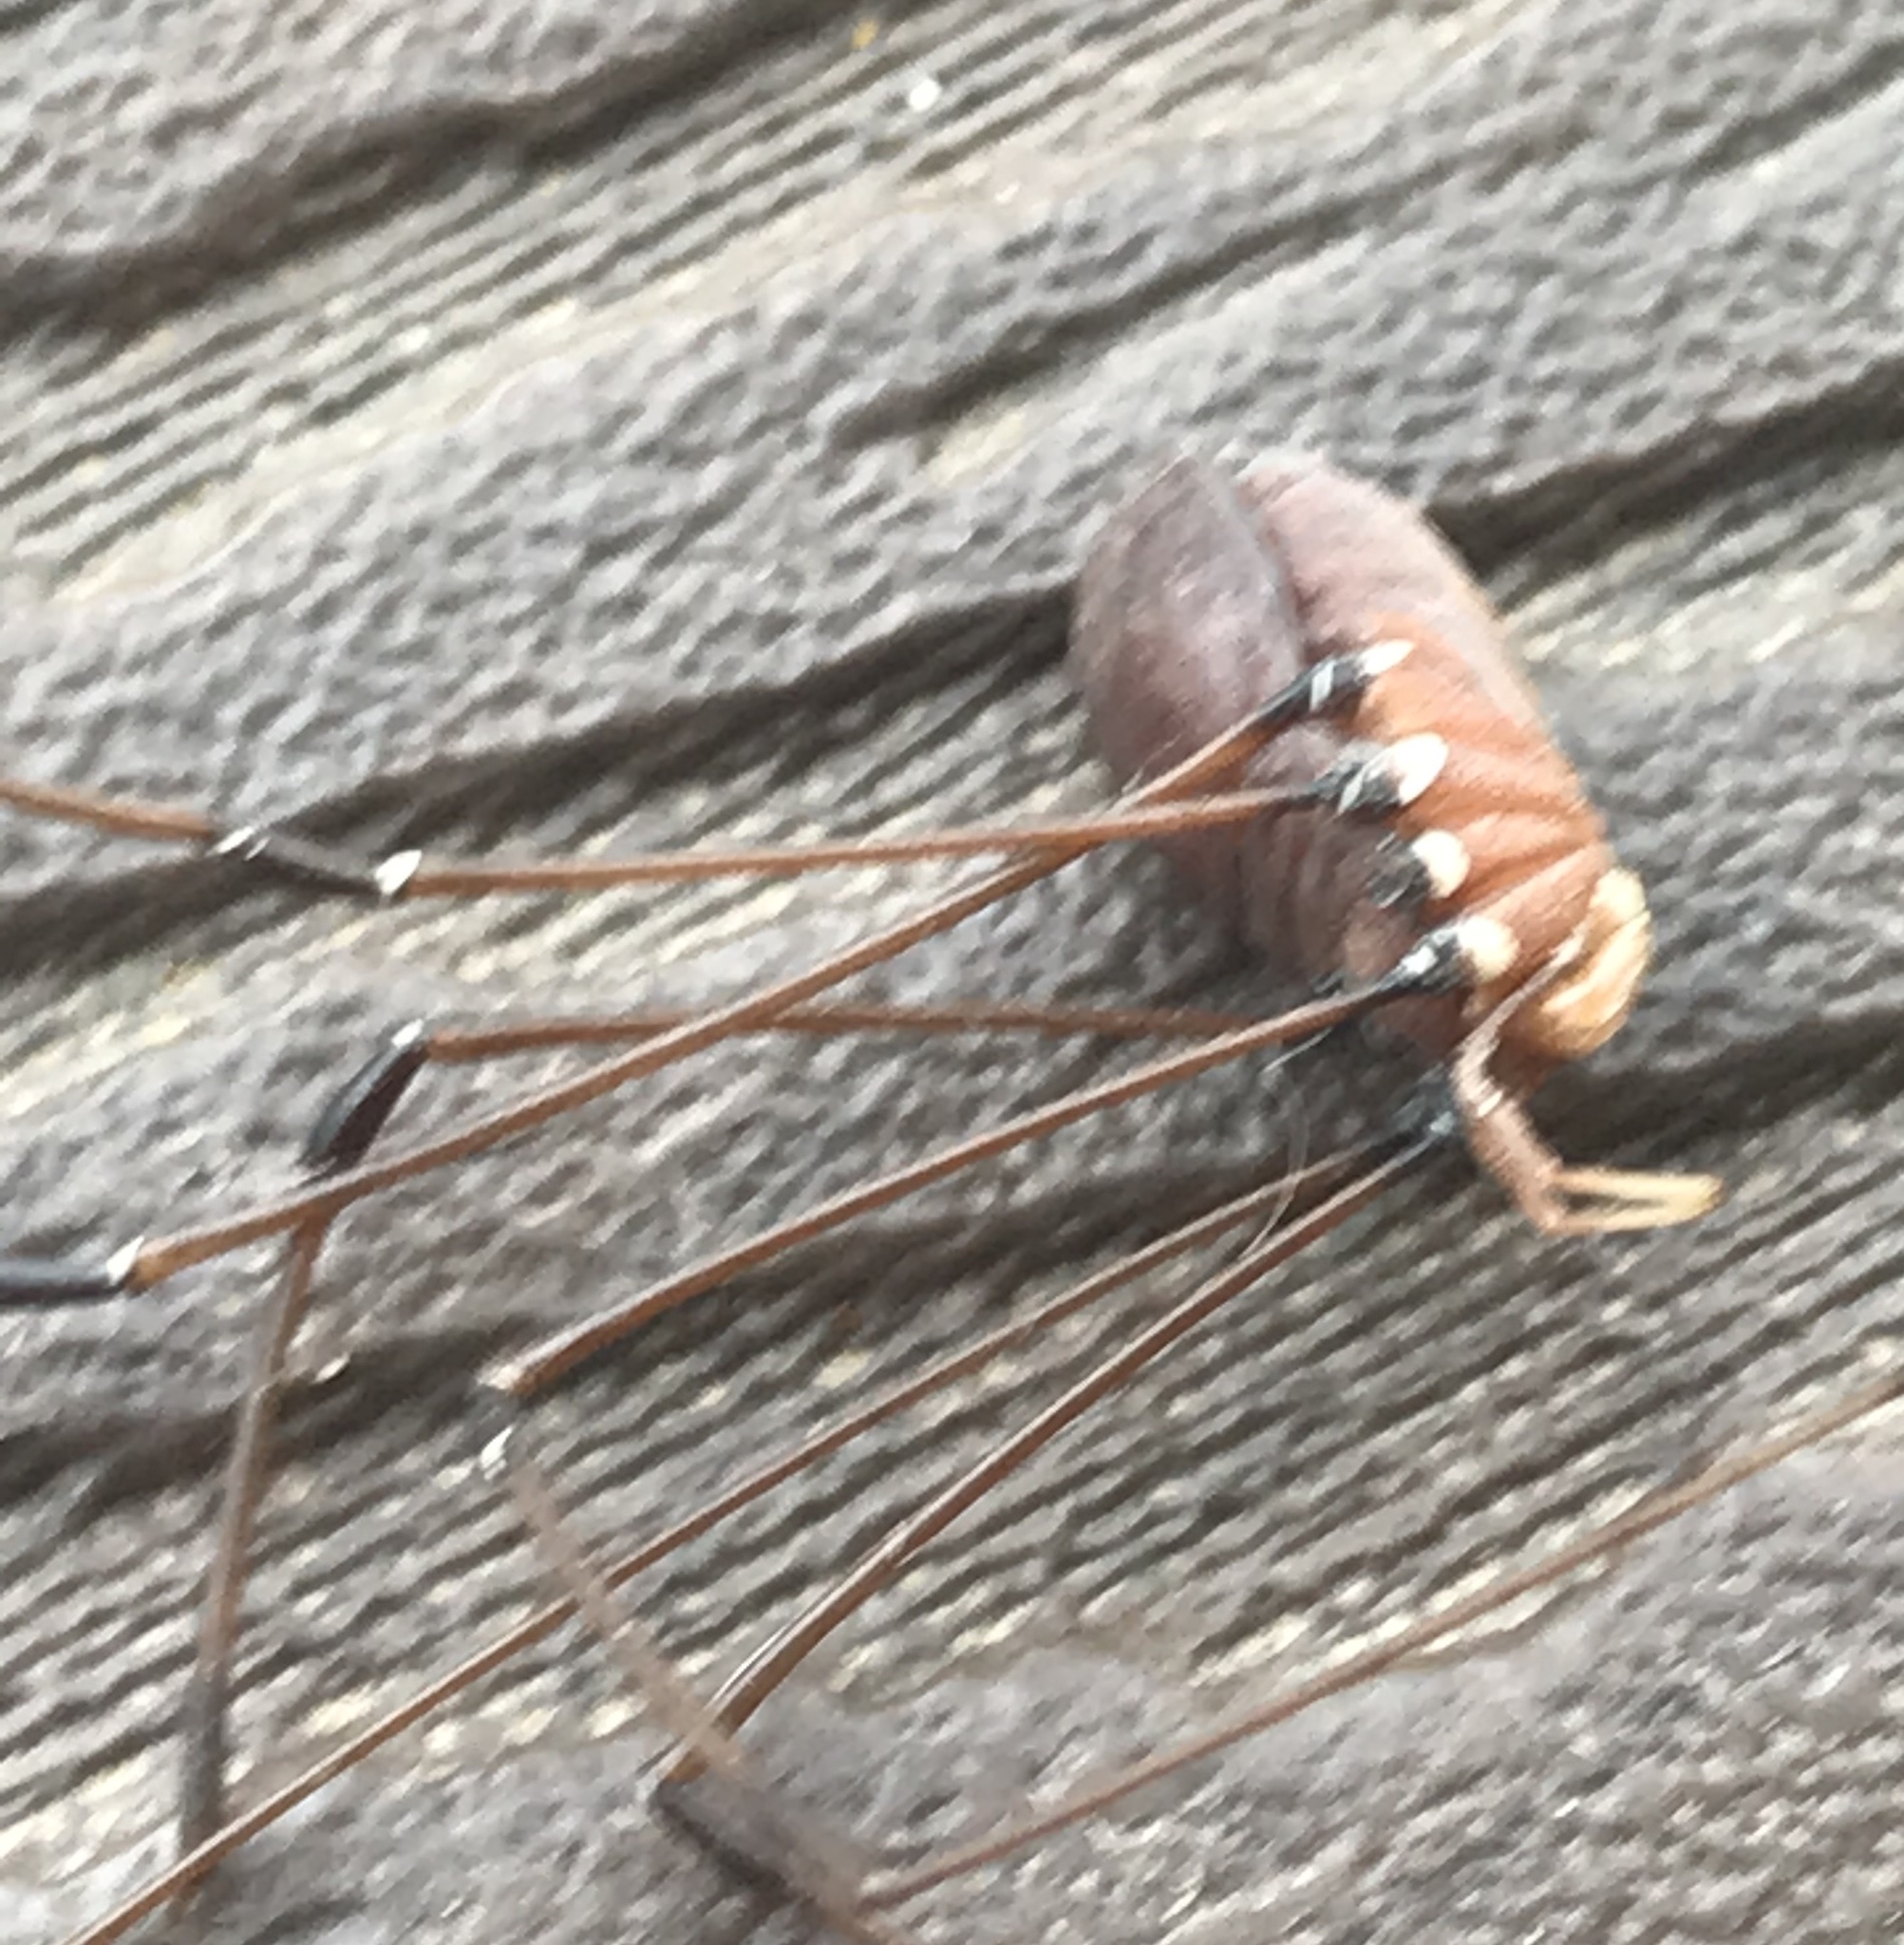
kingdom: Animalia
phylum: Arthropoda
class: Arachnida
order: Opiliones
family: Sclerosomatidae
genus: Leiobunum
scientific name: Leiobunum vittatum
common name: Eastern harvestman
